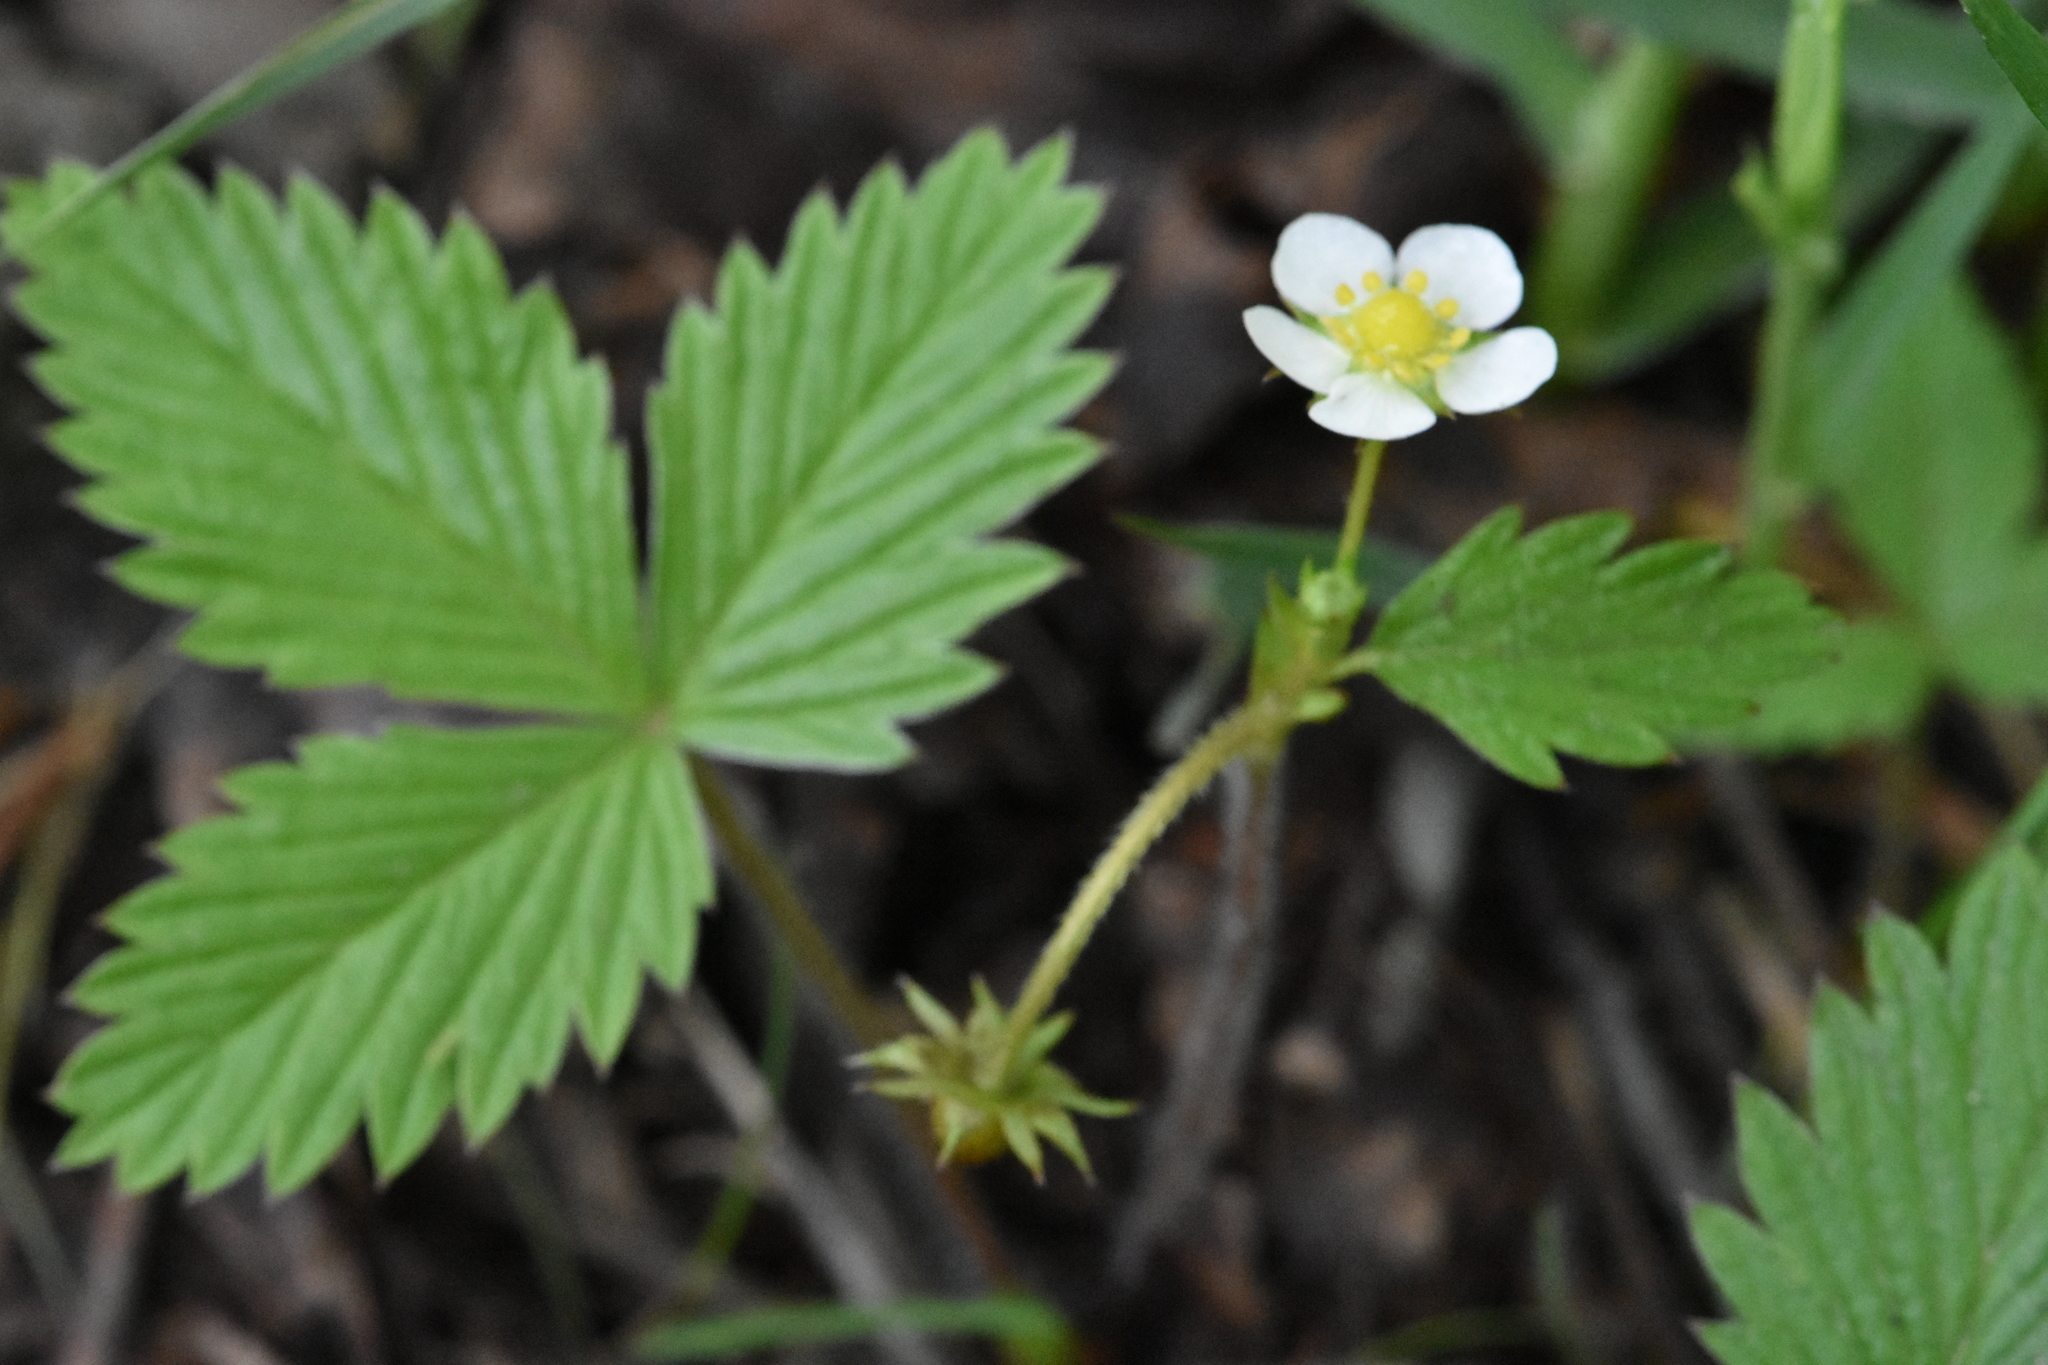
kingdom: Plantae
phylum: Tracheophyta
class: Magnoliopsida
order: Rosales
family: Rosaceae
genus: Fragaria
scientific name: Fragaria vesca
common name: Wild strawberry
